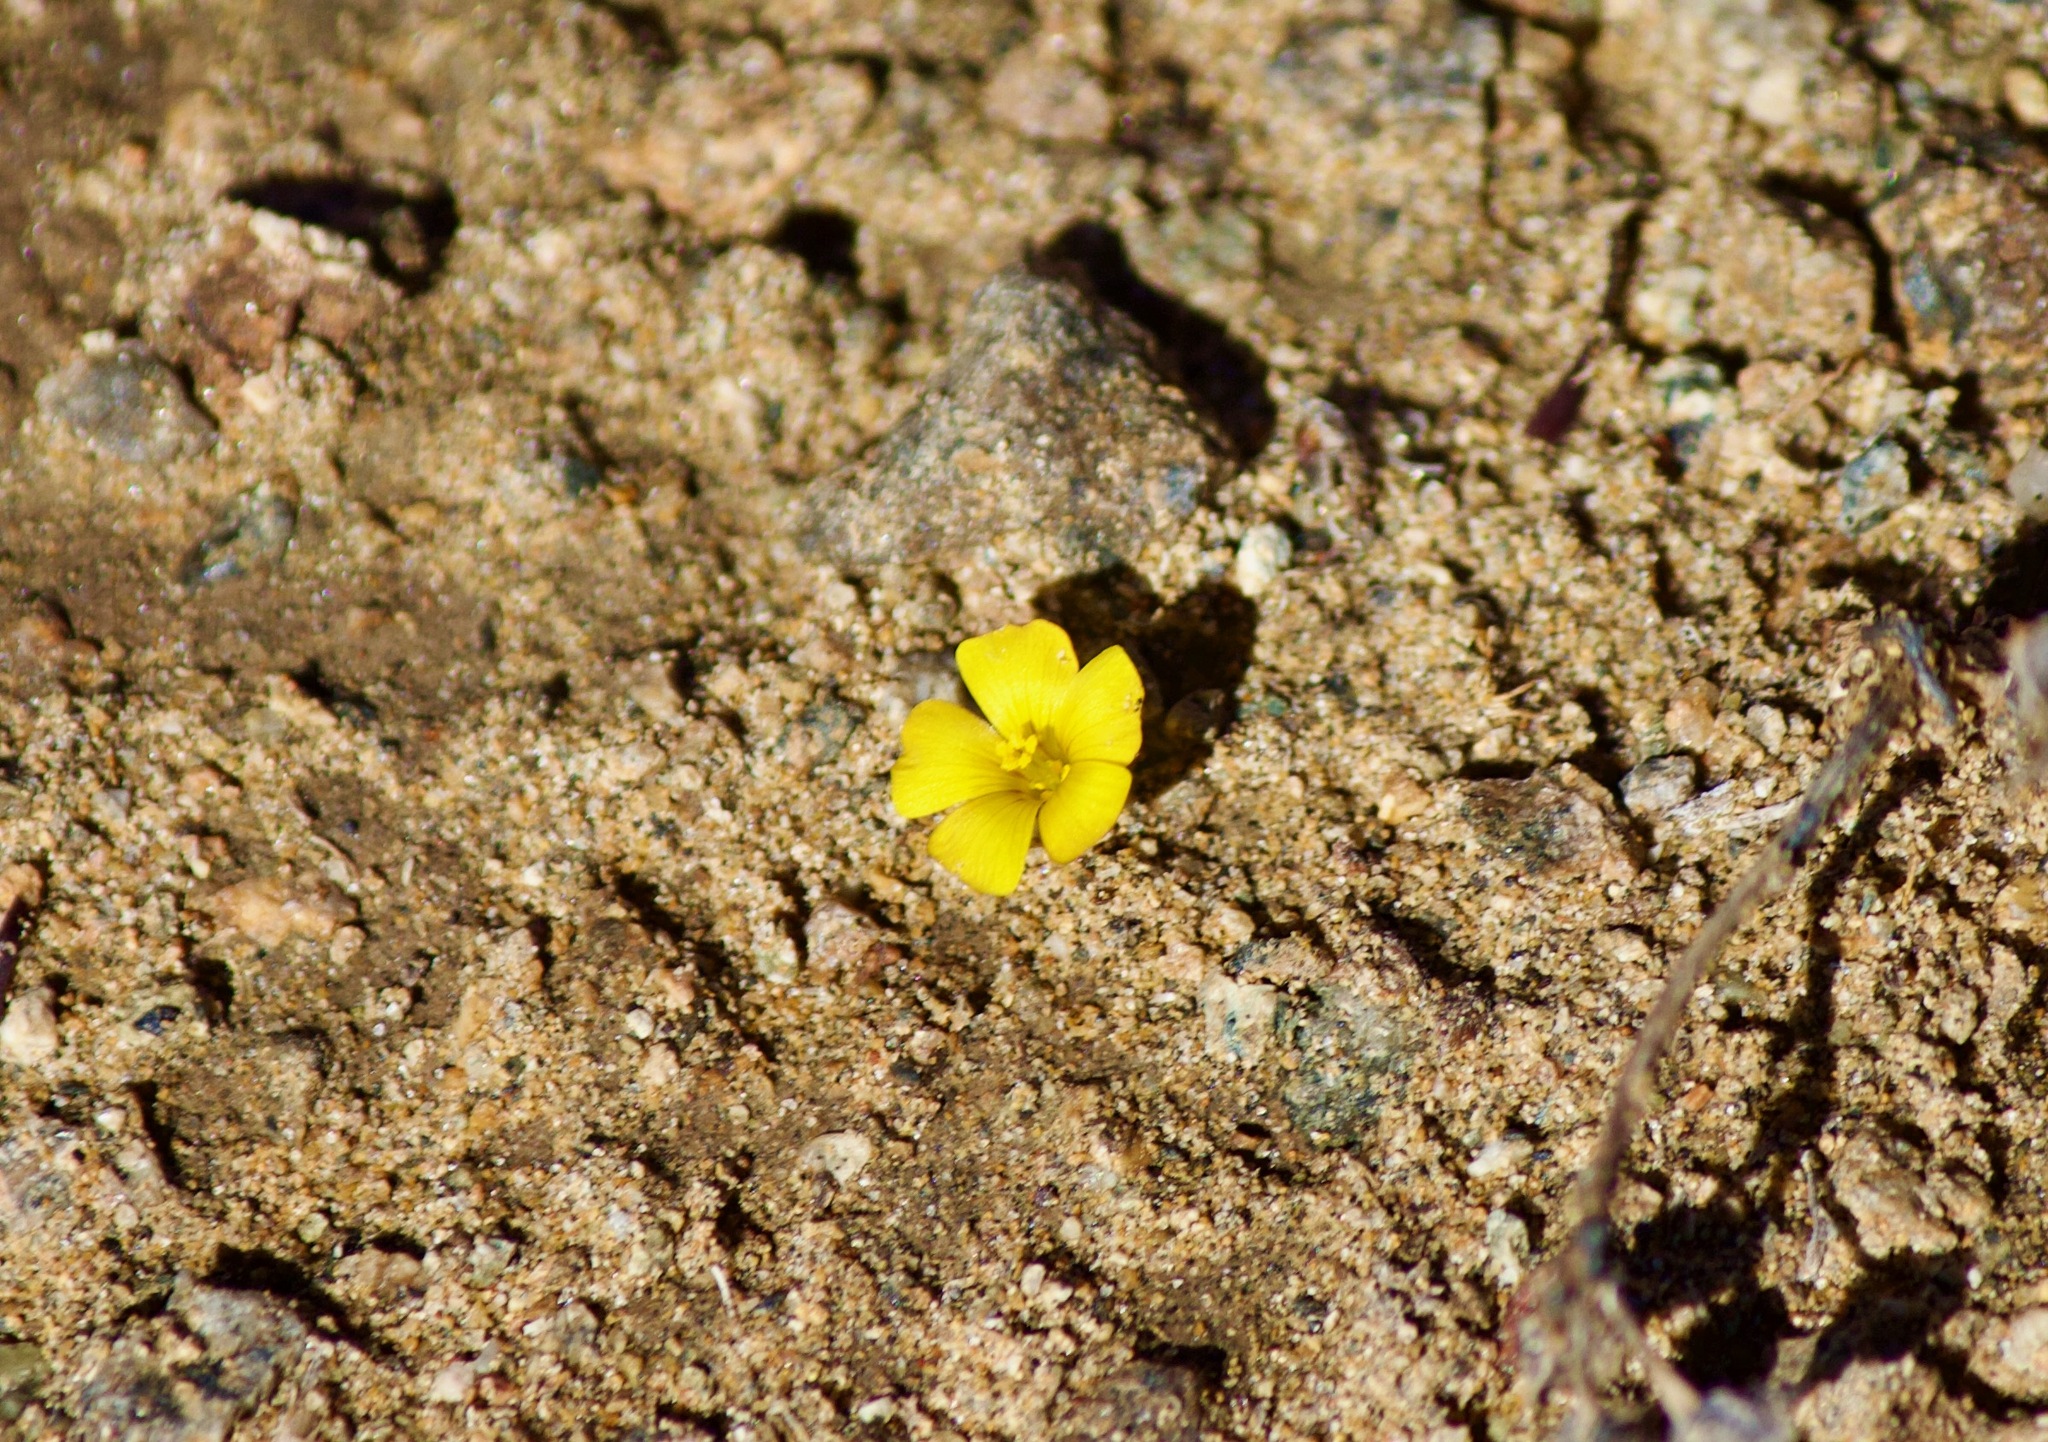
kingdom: Plantae
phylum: Tracheophyta
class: Magnoliopsida
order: Oxalidales
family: Oxalidaceae
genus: Oxalis
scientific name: Oxalis perdicaria
